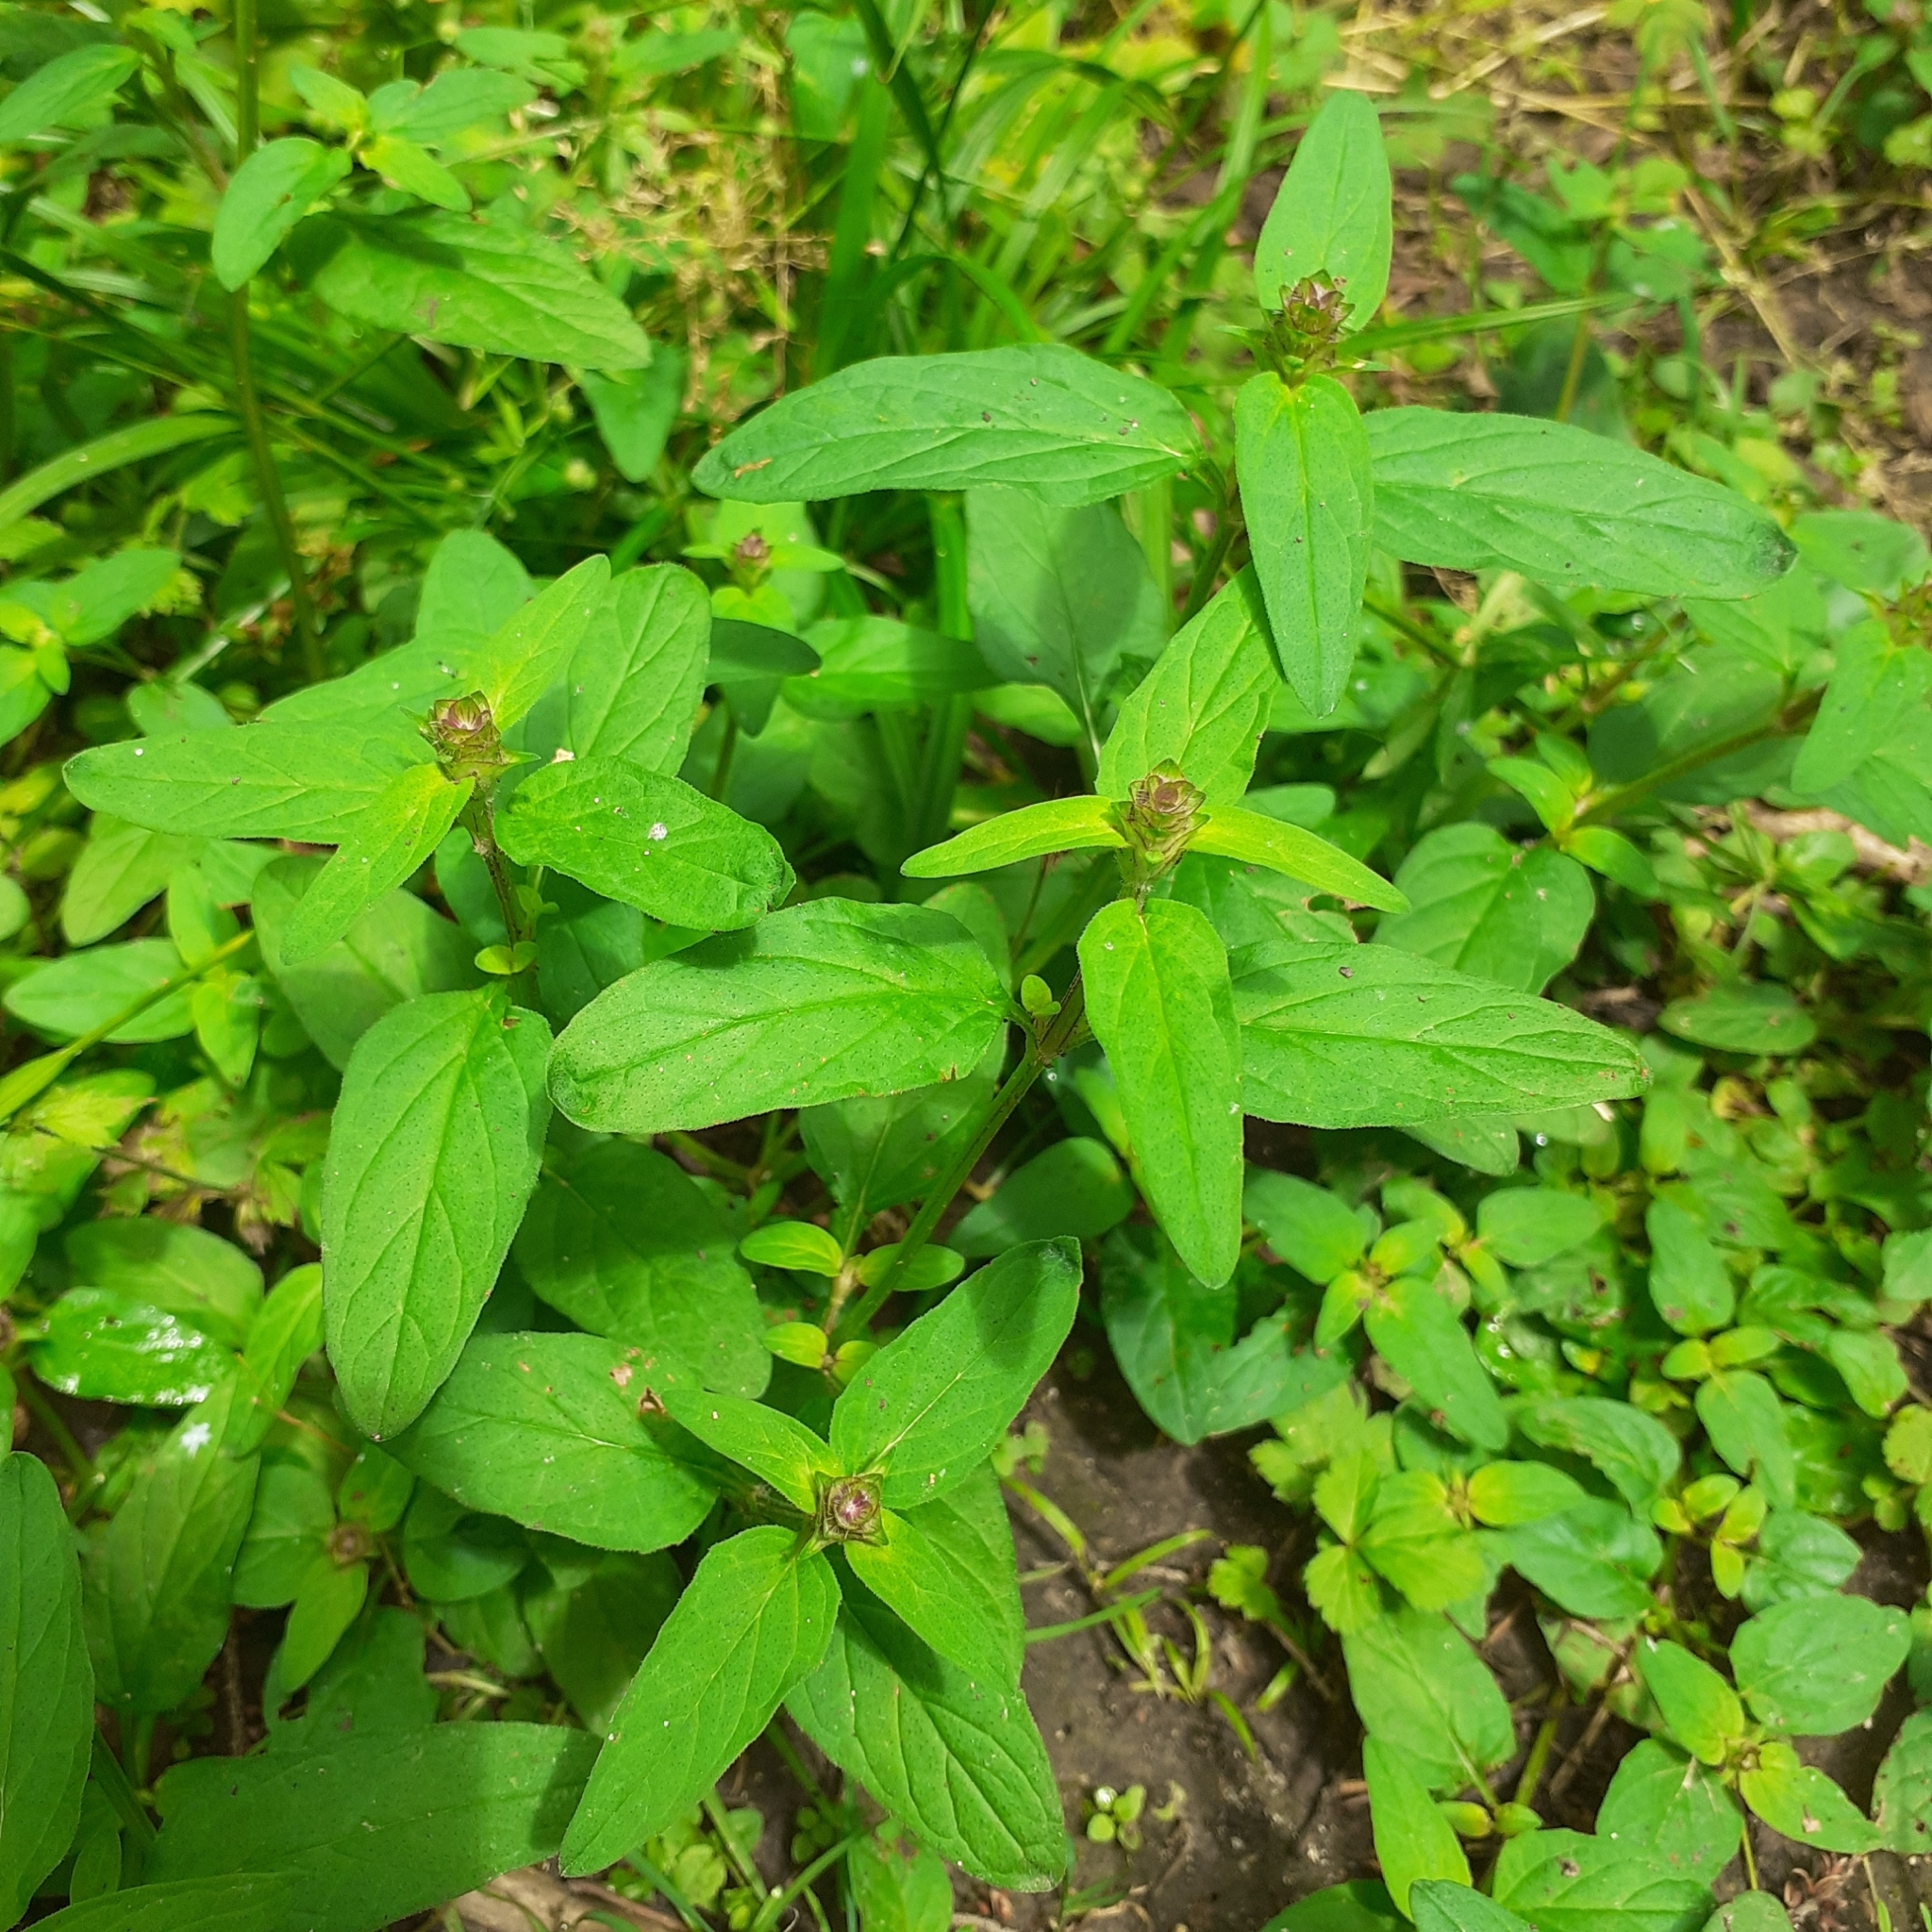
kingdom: Plantae
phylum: Tracheophyta
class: Magnoliopsida
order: Lamiales
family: Lamiaceae
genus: Prunella
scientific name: Prunella vulgaris
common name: Heal-all
